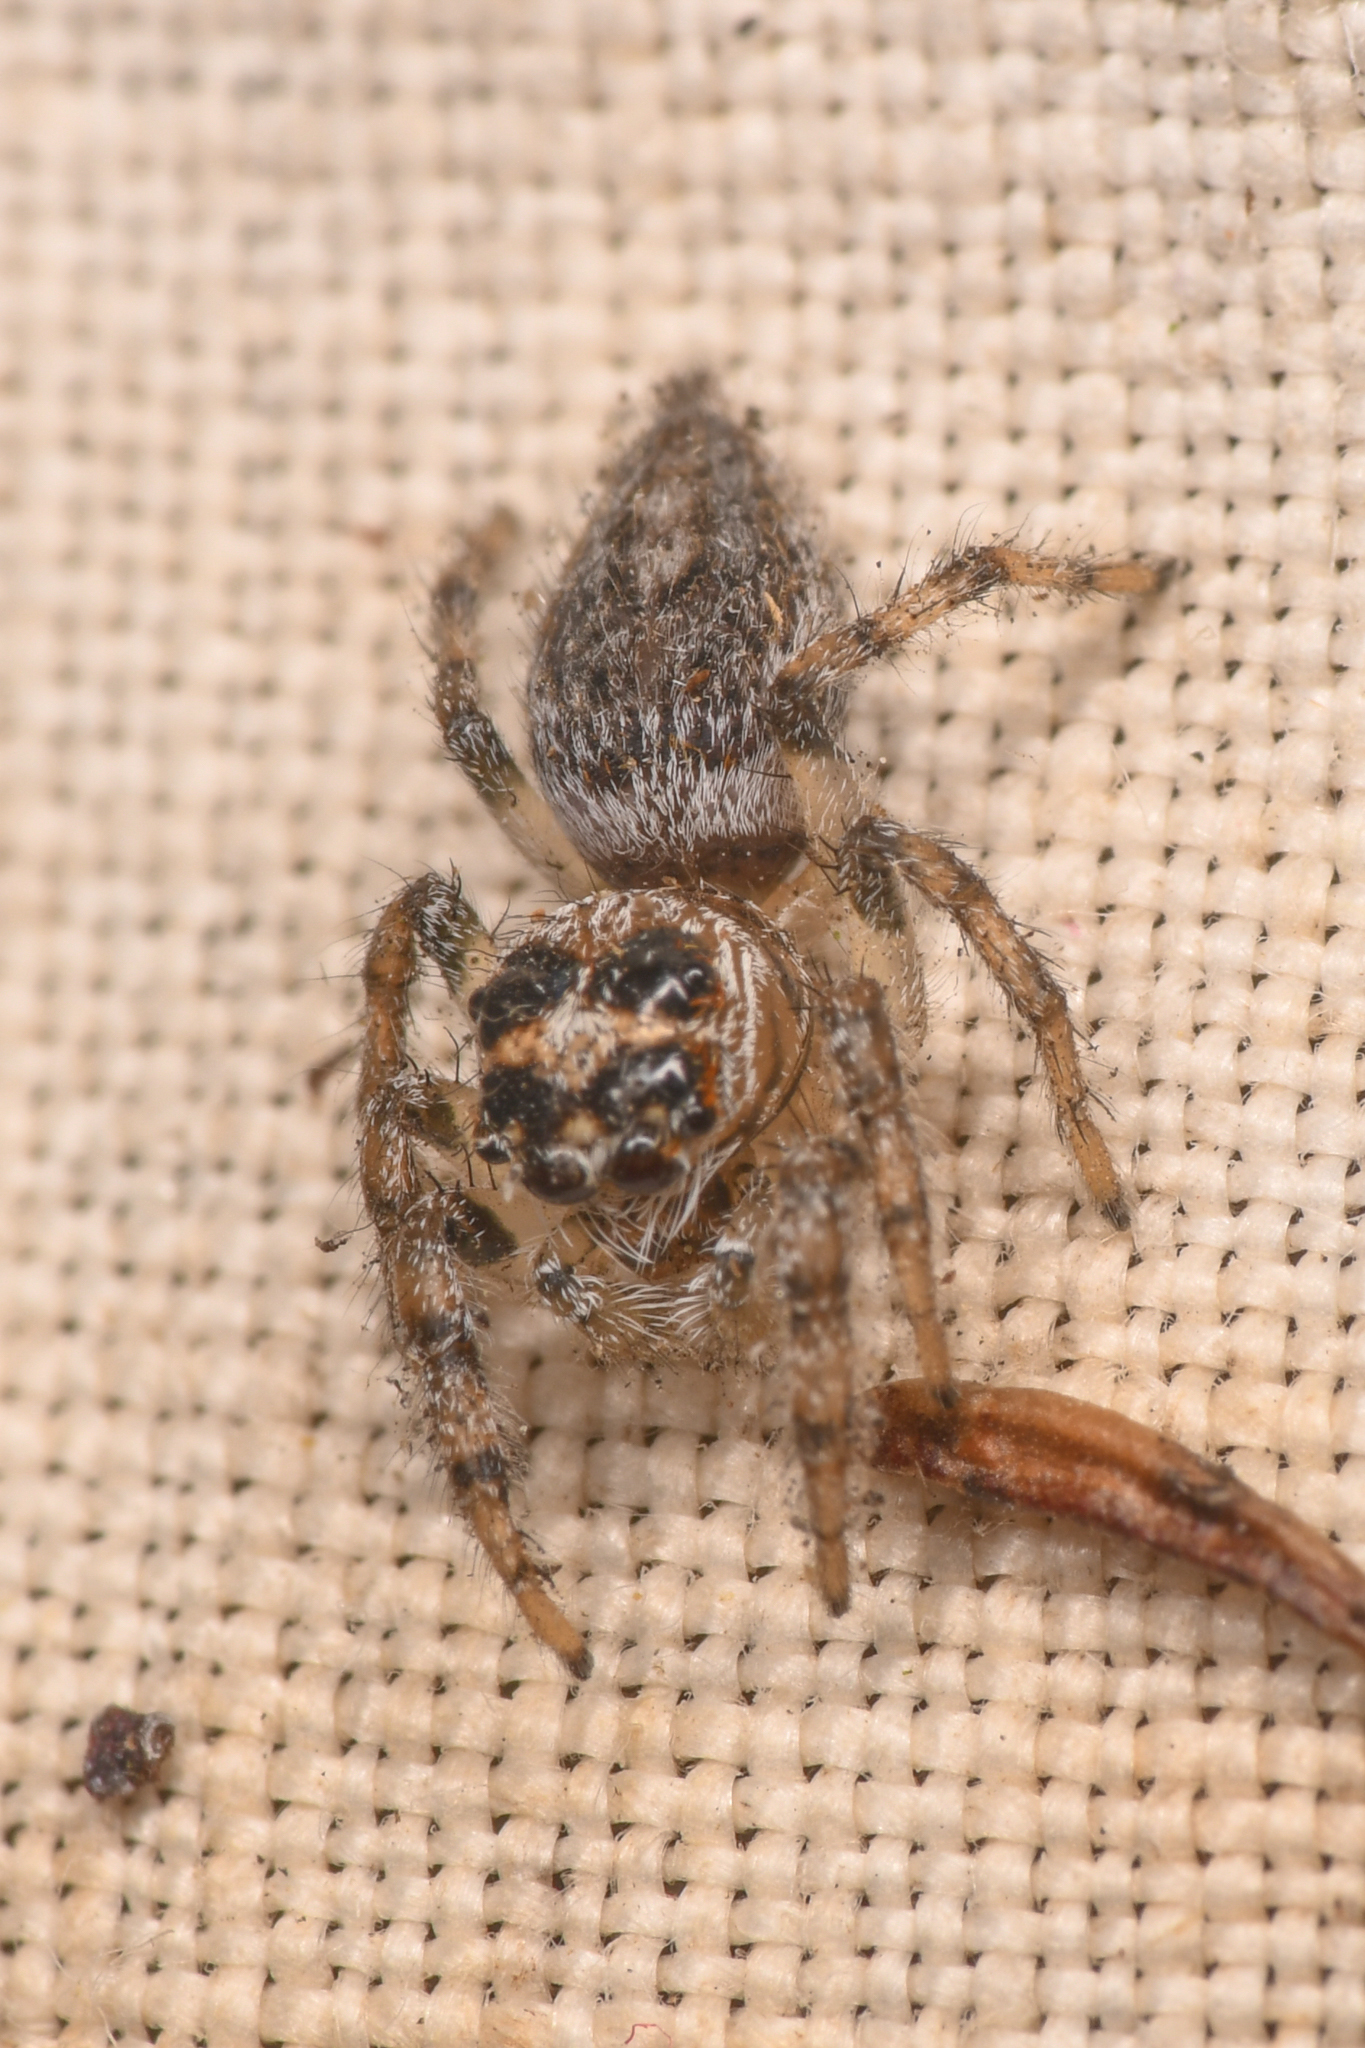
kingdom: Animalia
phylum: Arthropoda
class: Arachnida
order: Araneae
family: Salticidae
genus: Colonus
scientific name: Colonus hesperus
